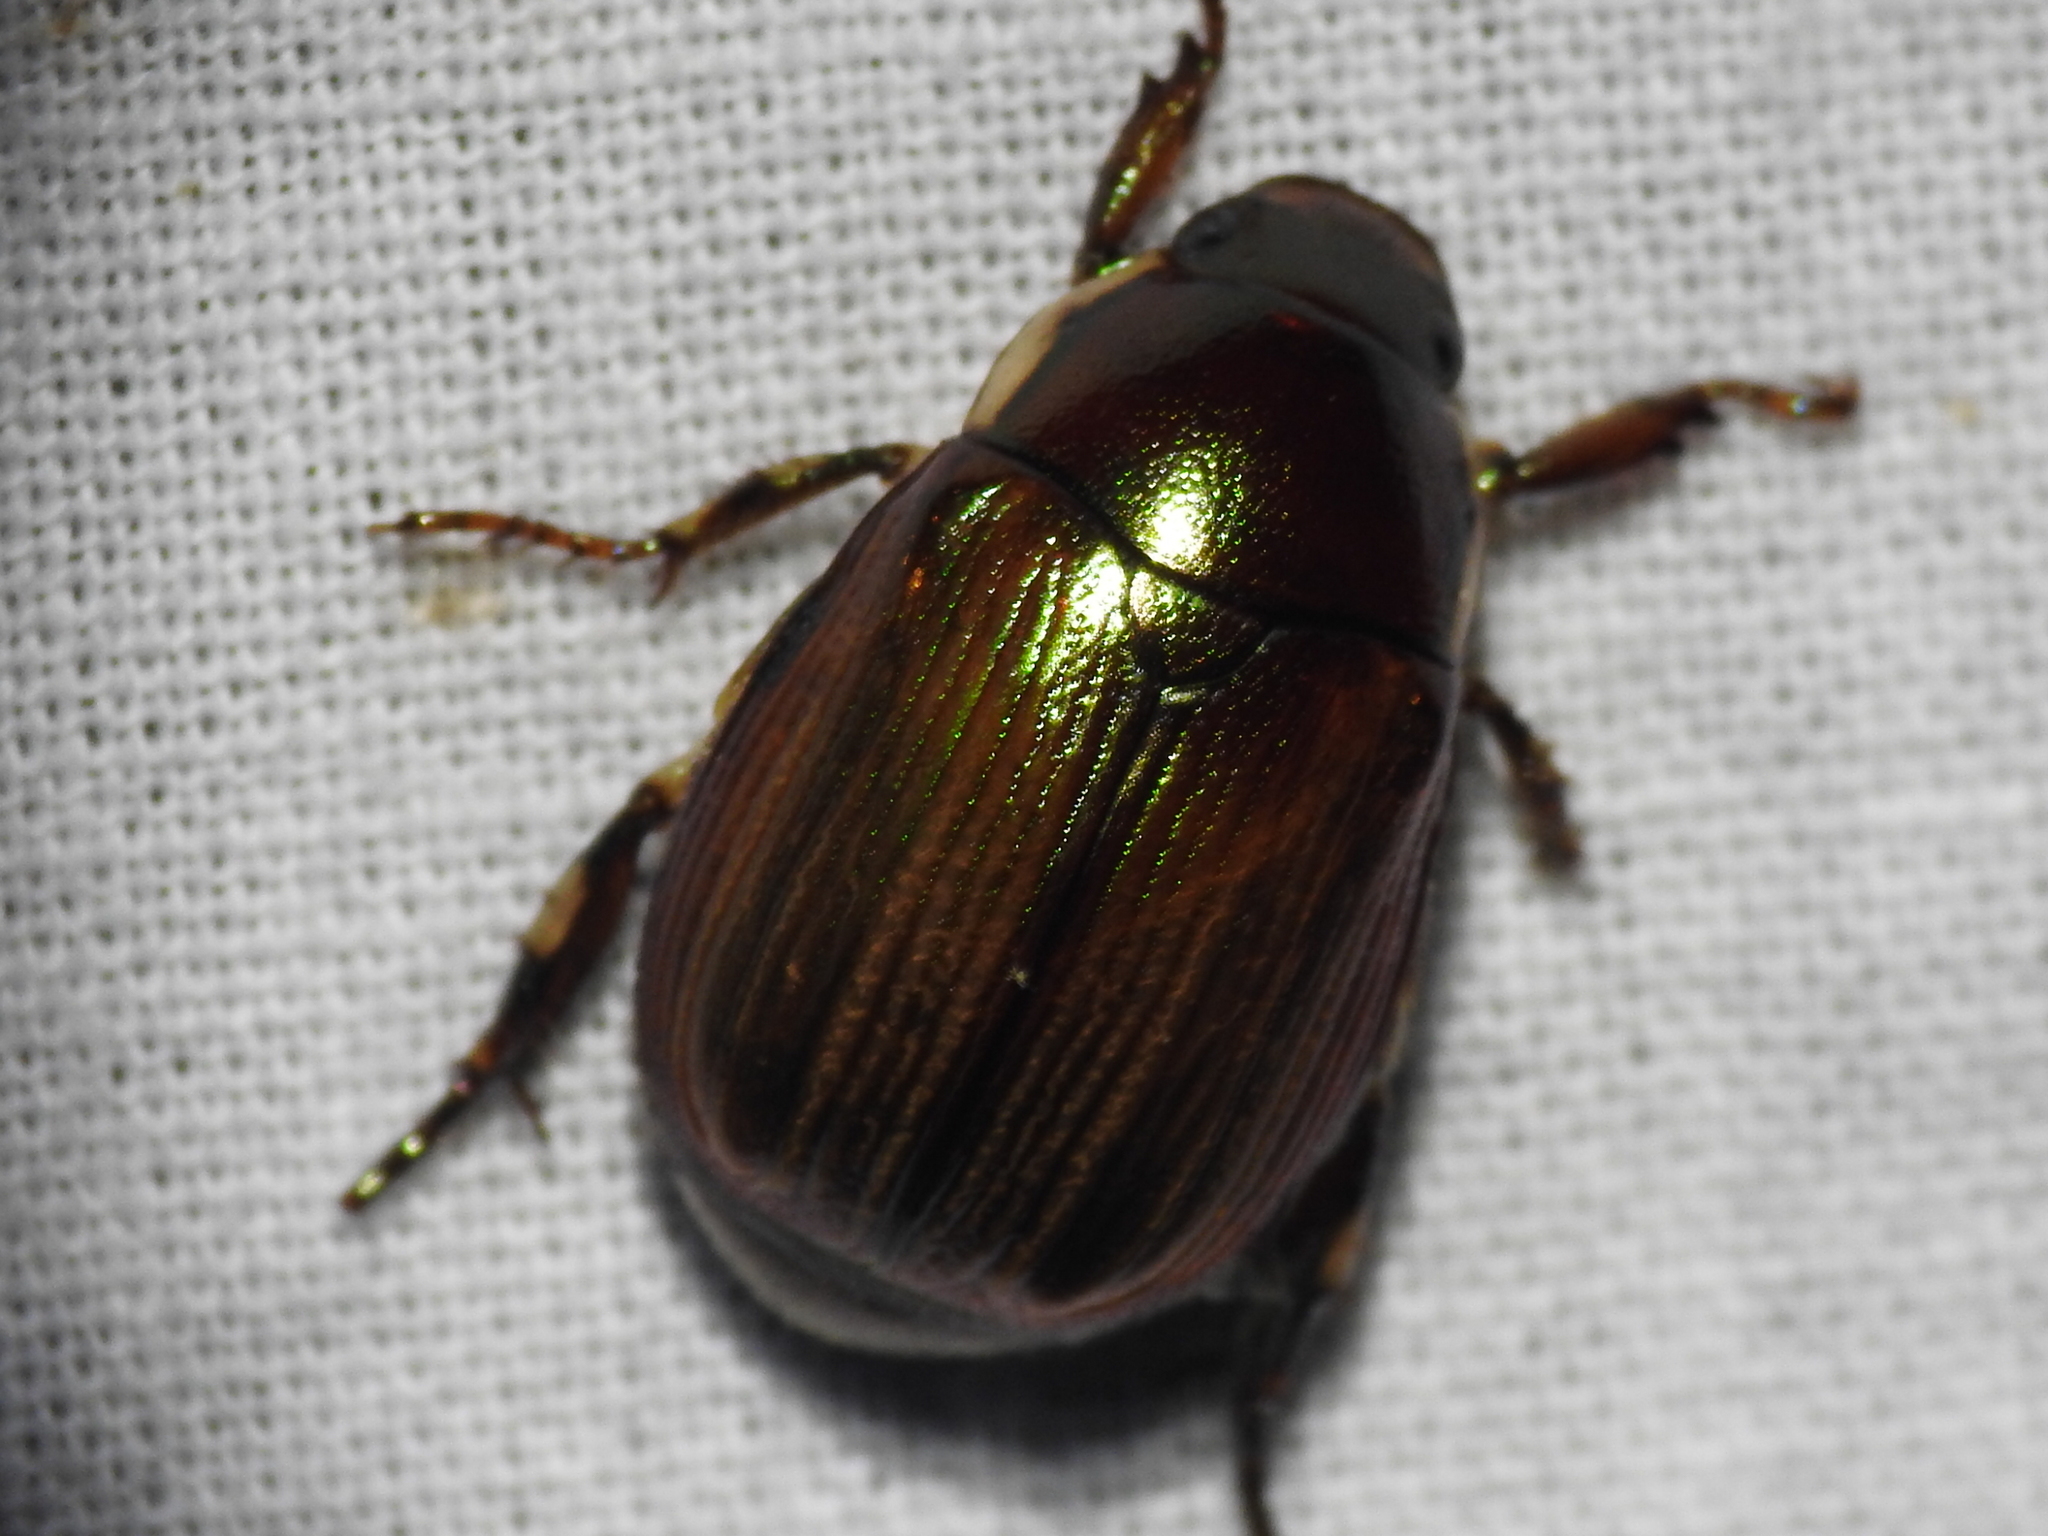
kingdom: Animalia
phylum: Arthropoda
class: Insecta
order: Coleoptera
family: Scarabaeidae
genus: Callistethus
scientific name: Callistethus marginatus
